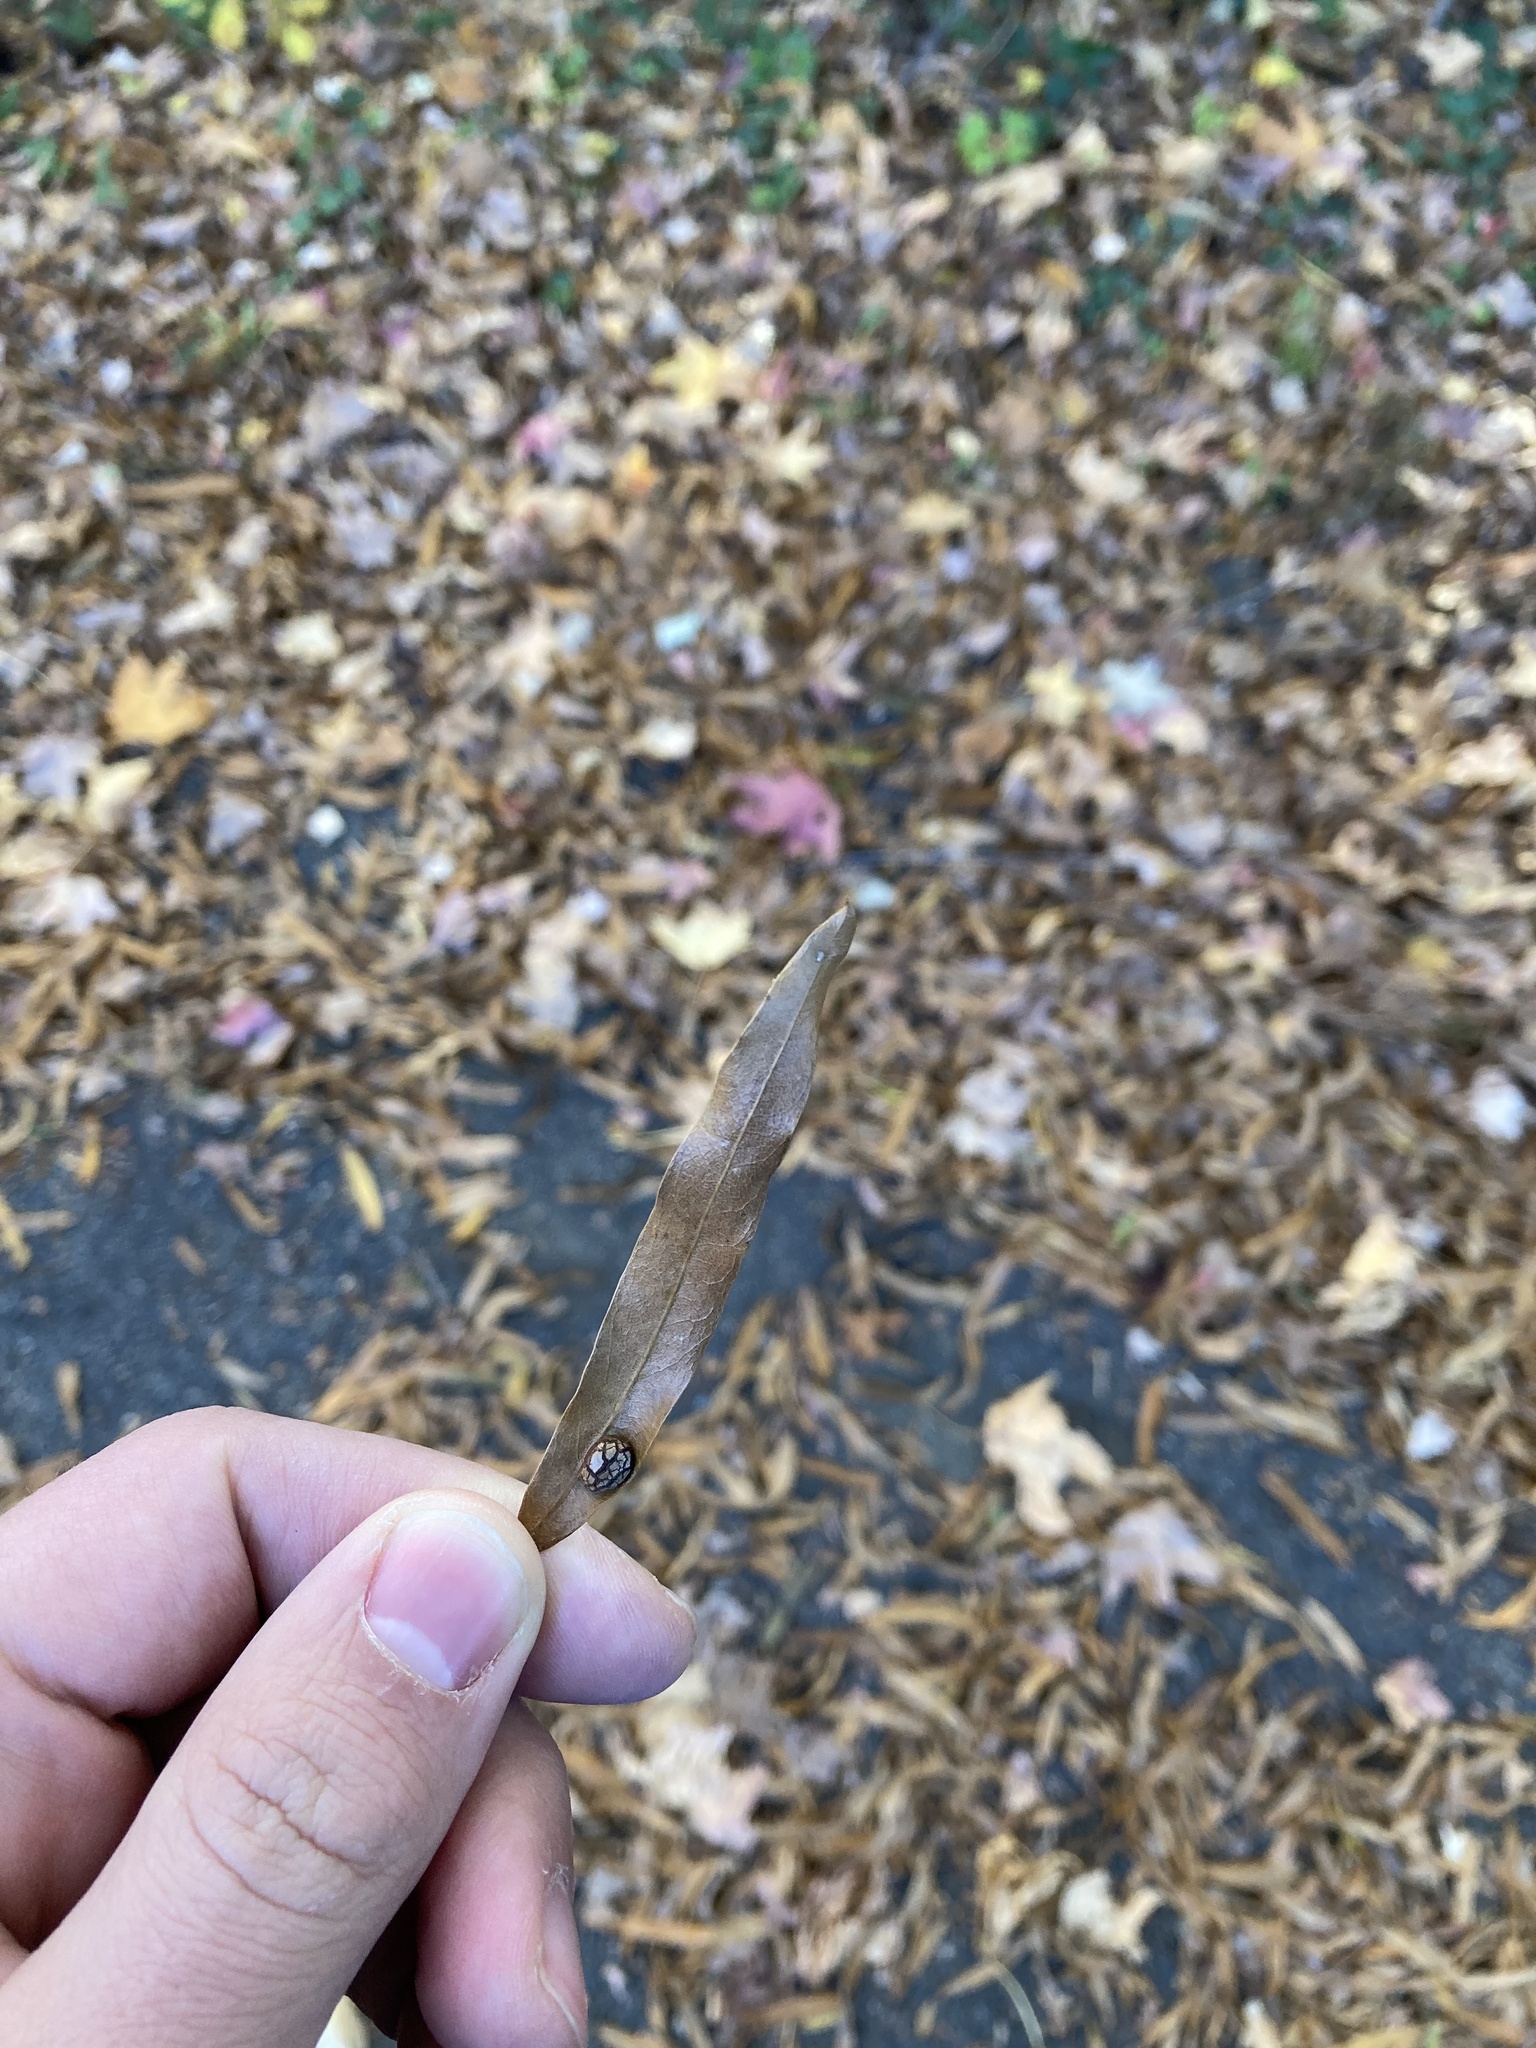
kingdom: Plantae
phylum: Tracheophyta
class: Magnoliopsida
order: Fagales
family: Fagaceae
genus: Quercus
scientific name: Quercus phellos
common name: Willow oak
